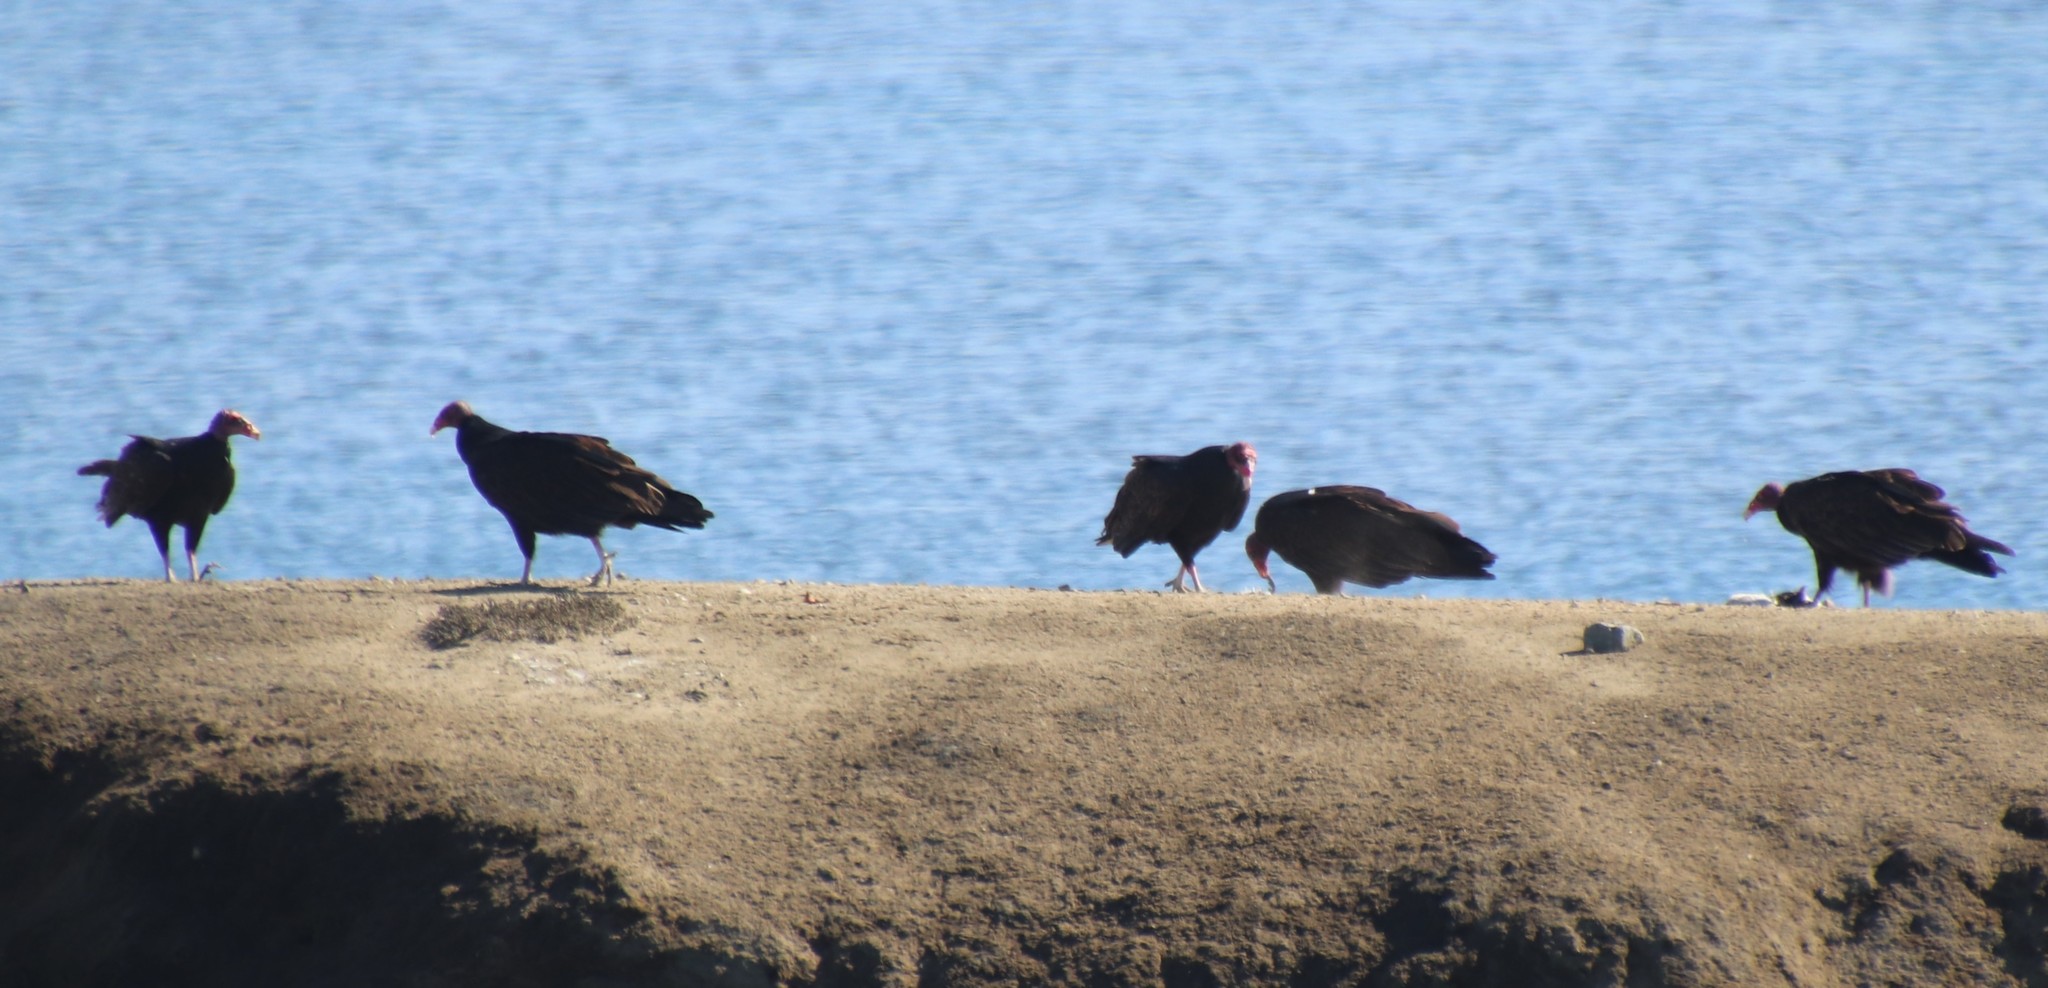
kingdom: Animalia
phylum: Chordata
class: Aves
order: Accipitriformes
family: Cathartidae
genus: Cathartes
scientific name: Cathartes aura
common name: Turkey vulture
